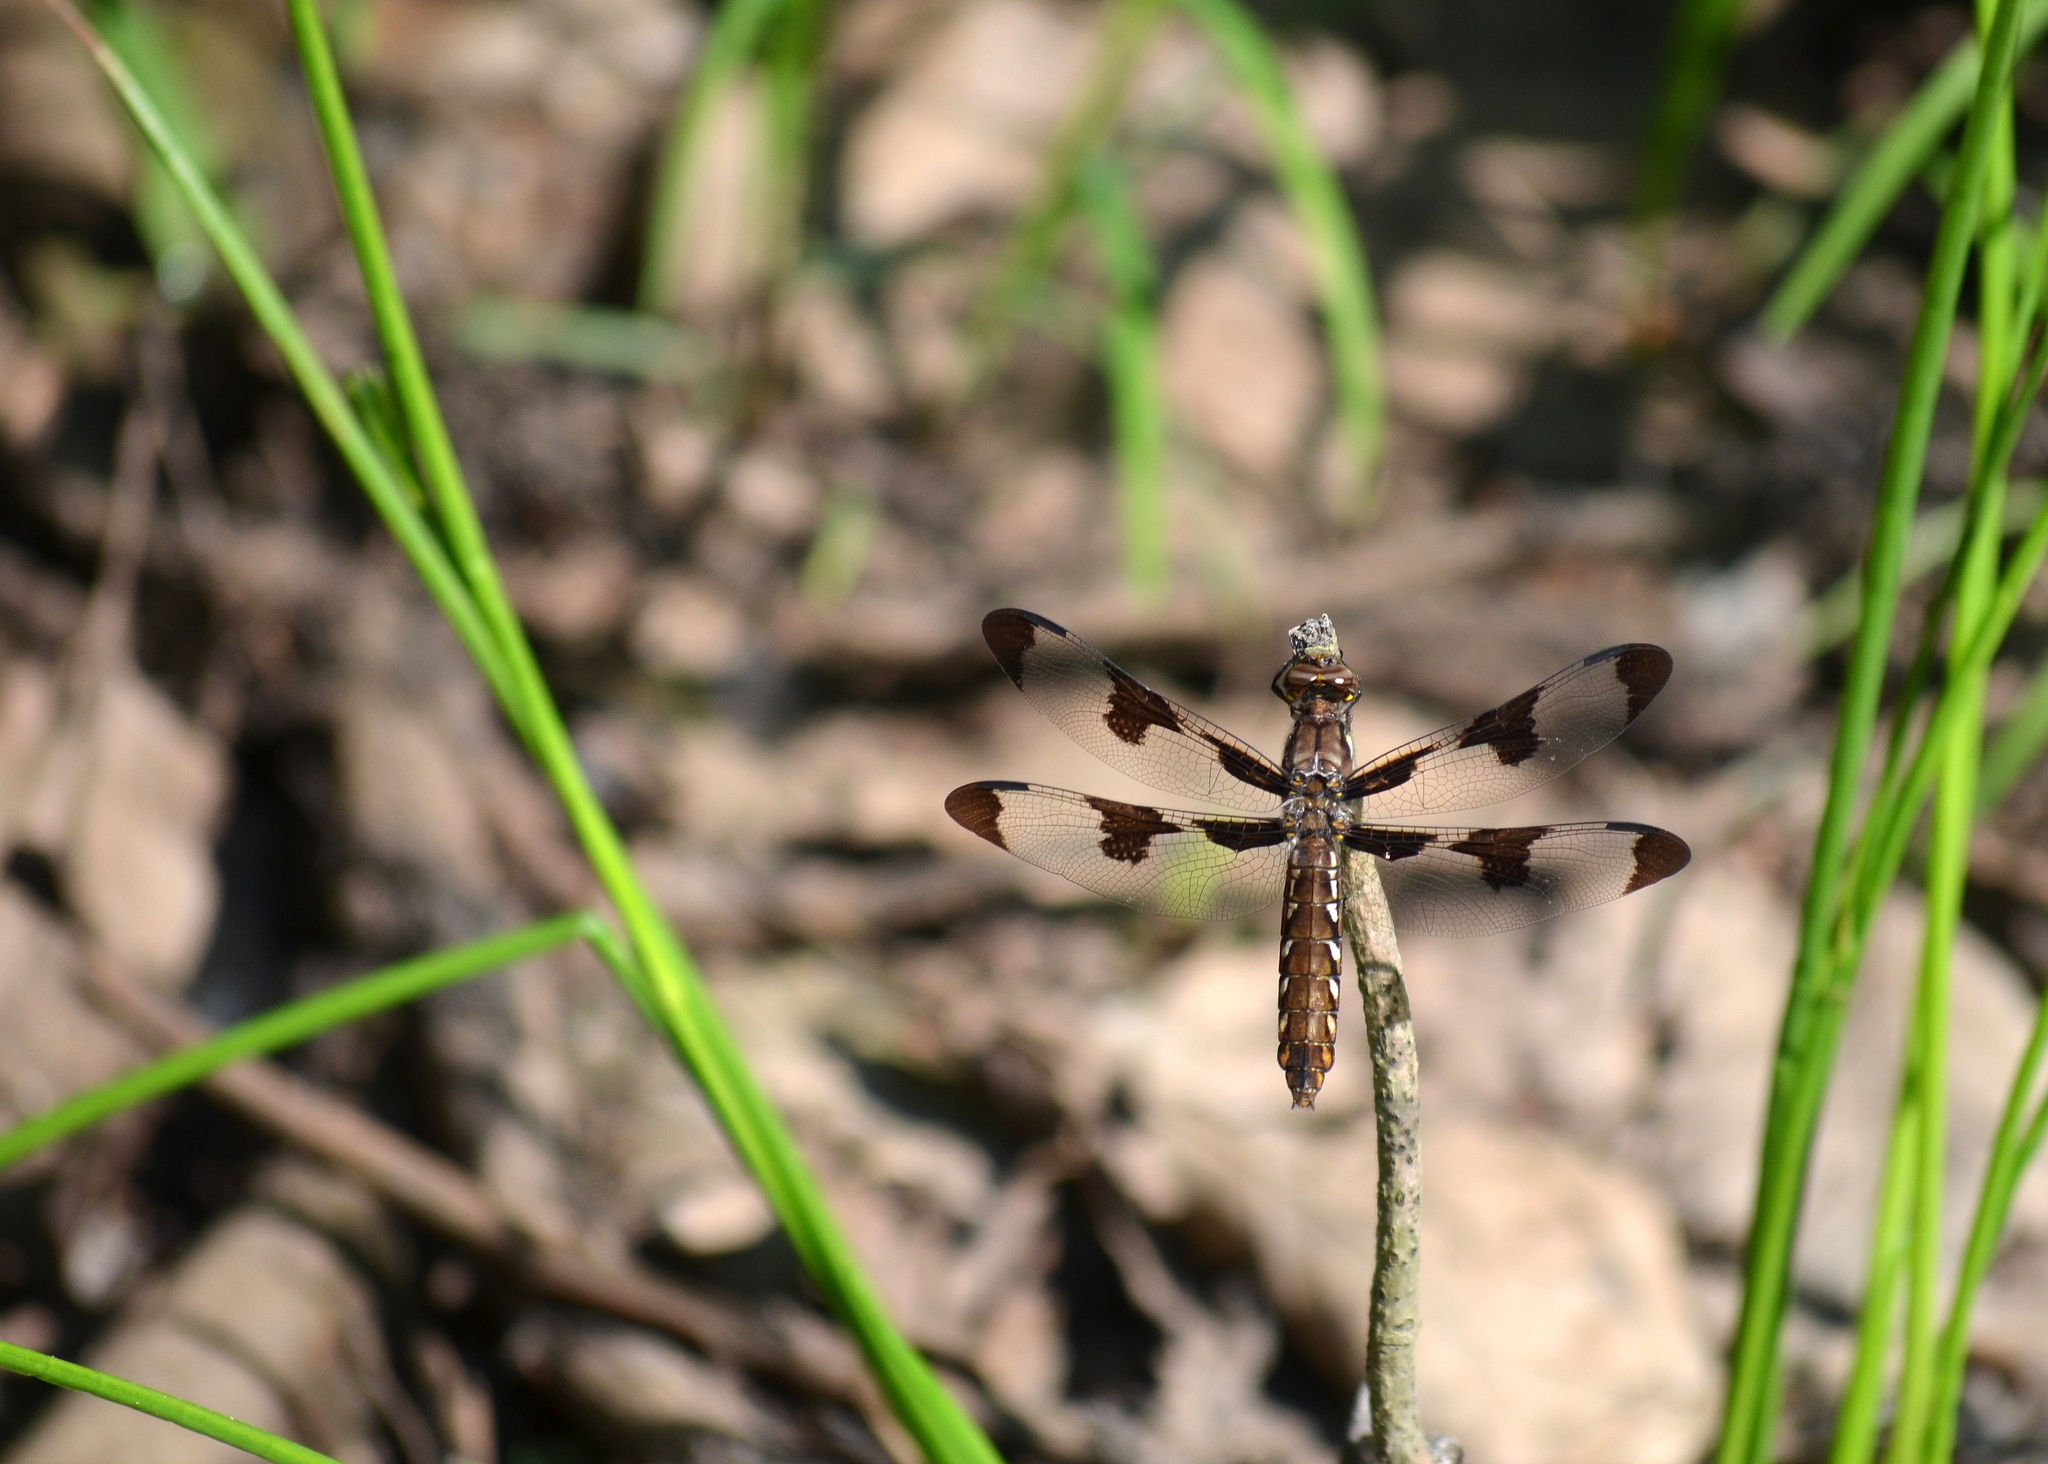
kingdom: Animalia
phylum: Arthropoda
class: Insecta
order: Odonata
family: Libellulidae
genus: Plathemis
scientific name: Plathemis lydia
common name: Common whitetail
